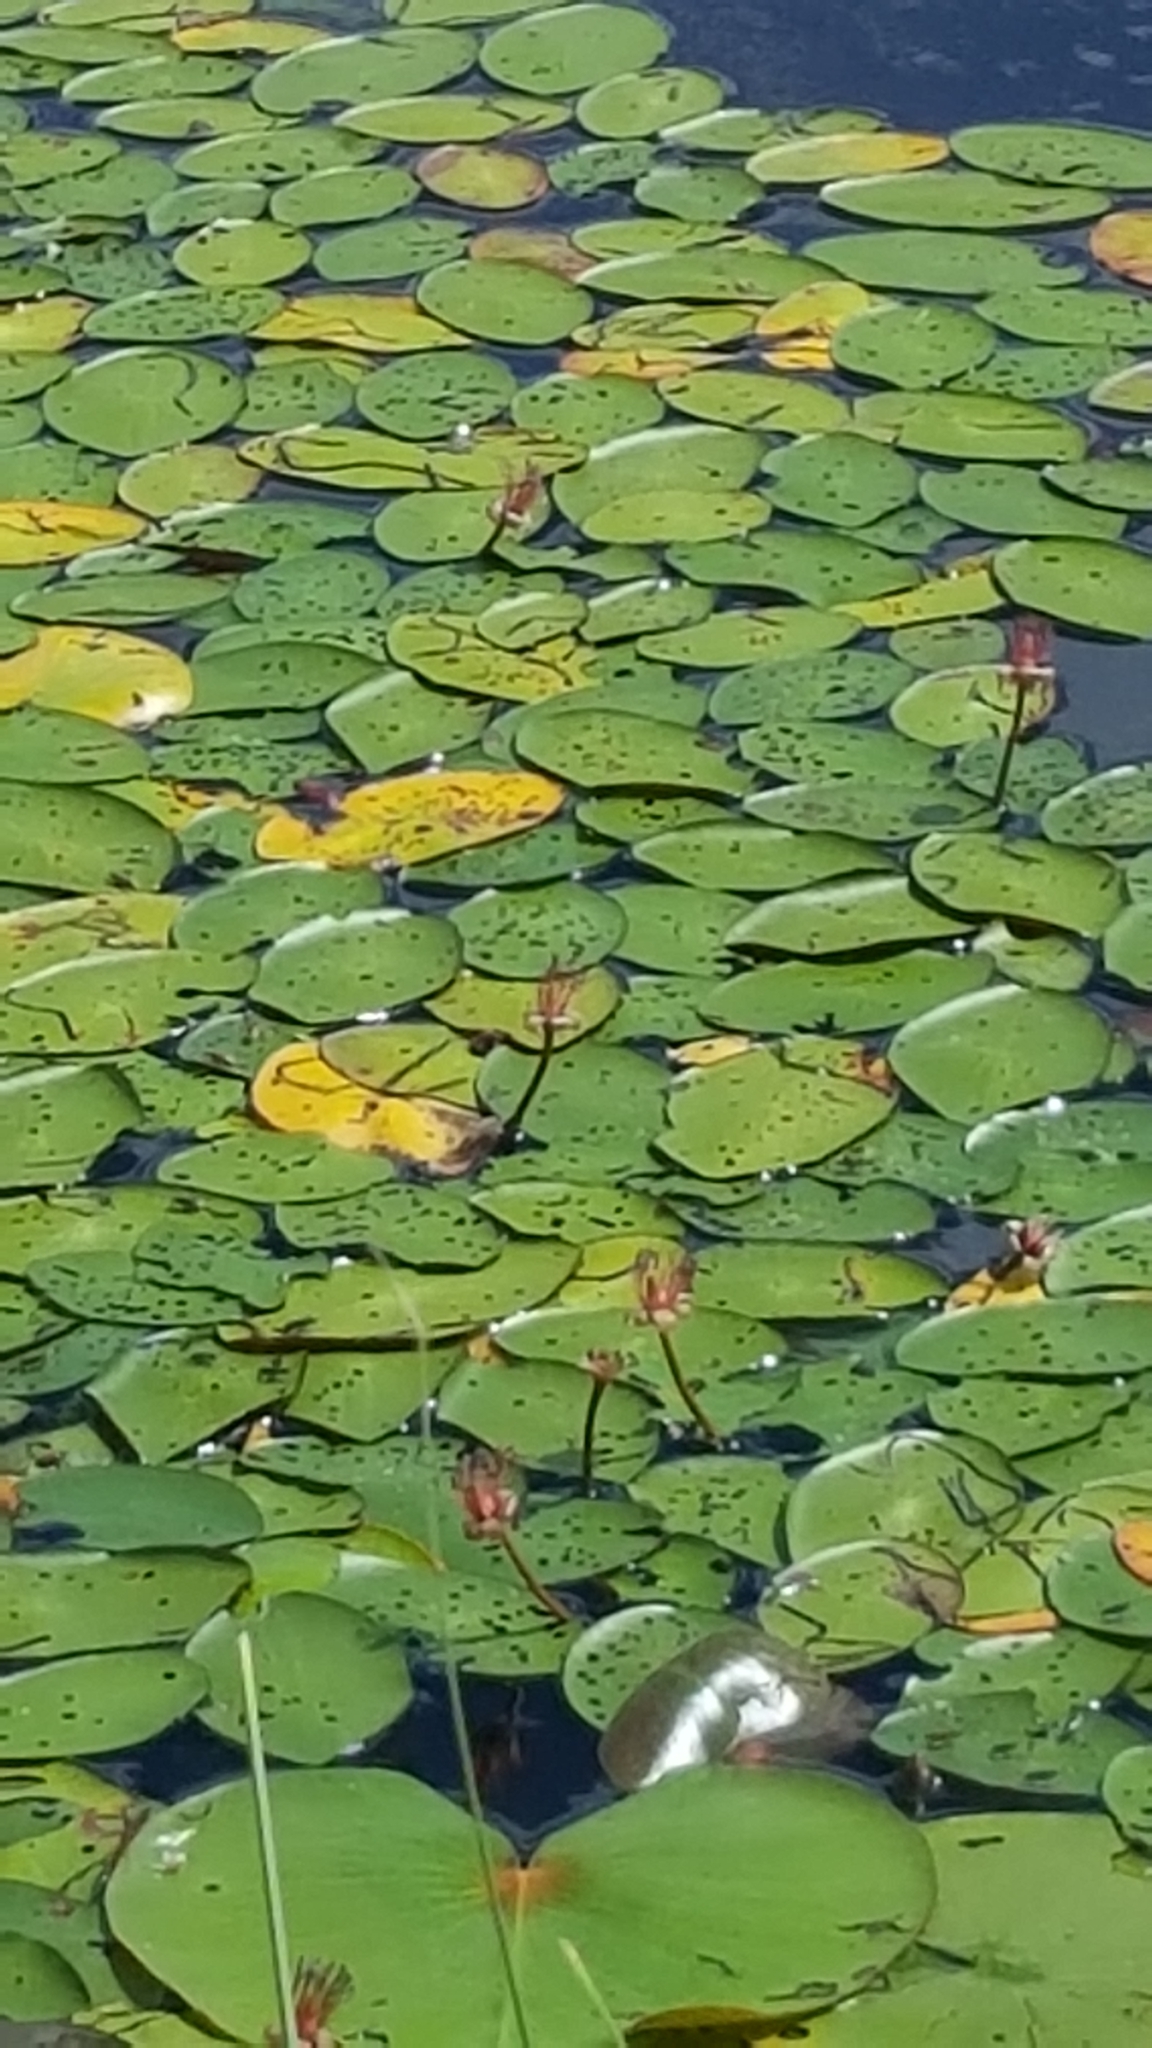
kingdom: Plantae
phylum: Tracheophyta
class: Magnoliopsida
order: Nymphaeales
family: Cabombaceae
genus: Brasenia
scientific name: Brasenia schreberi
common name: Water-shield
